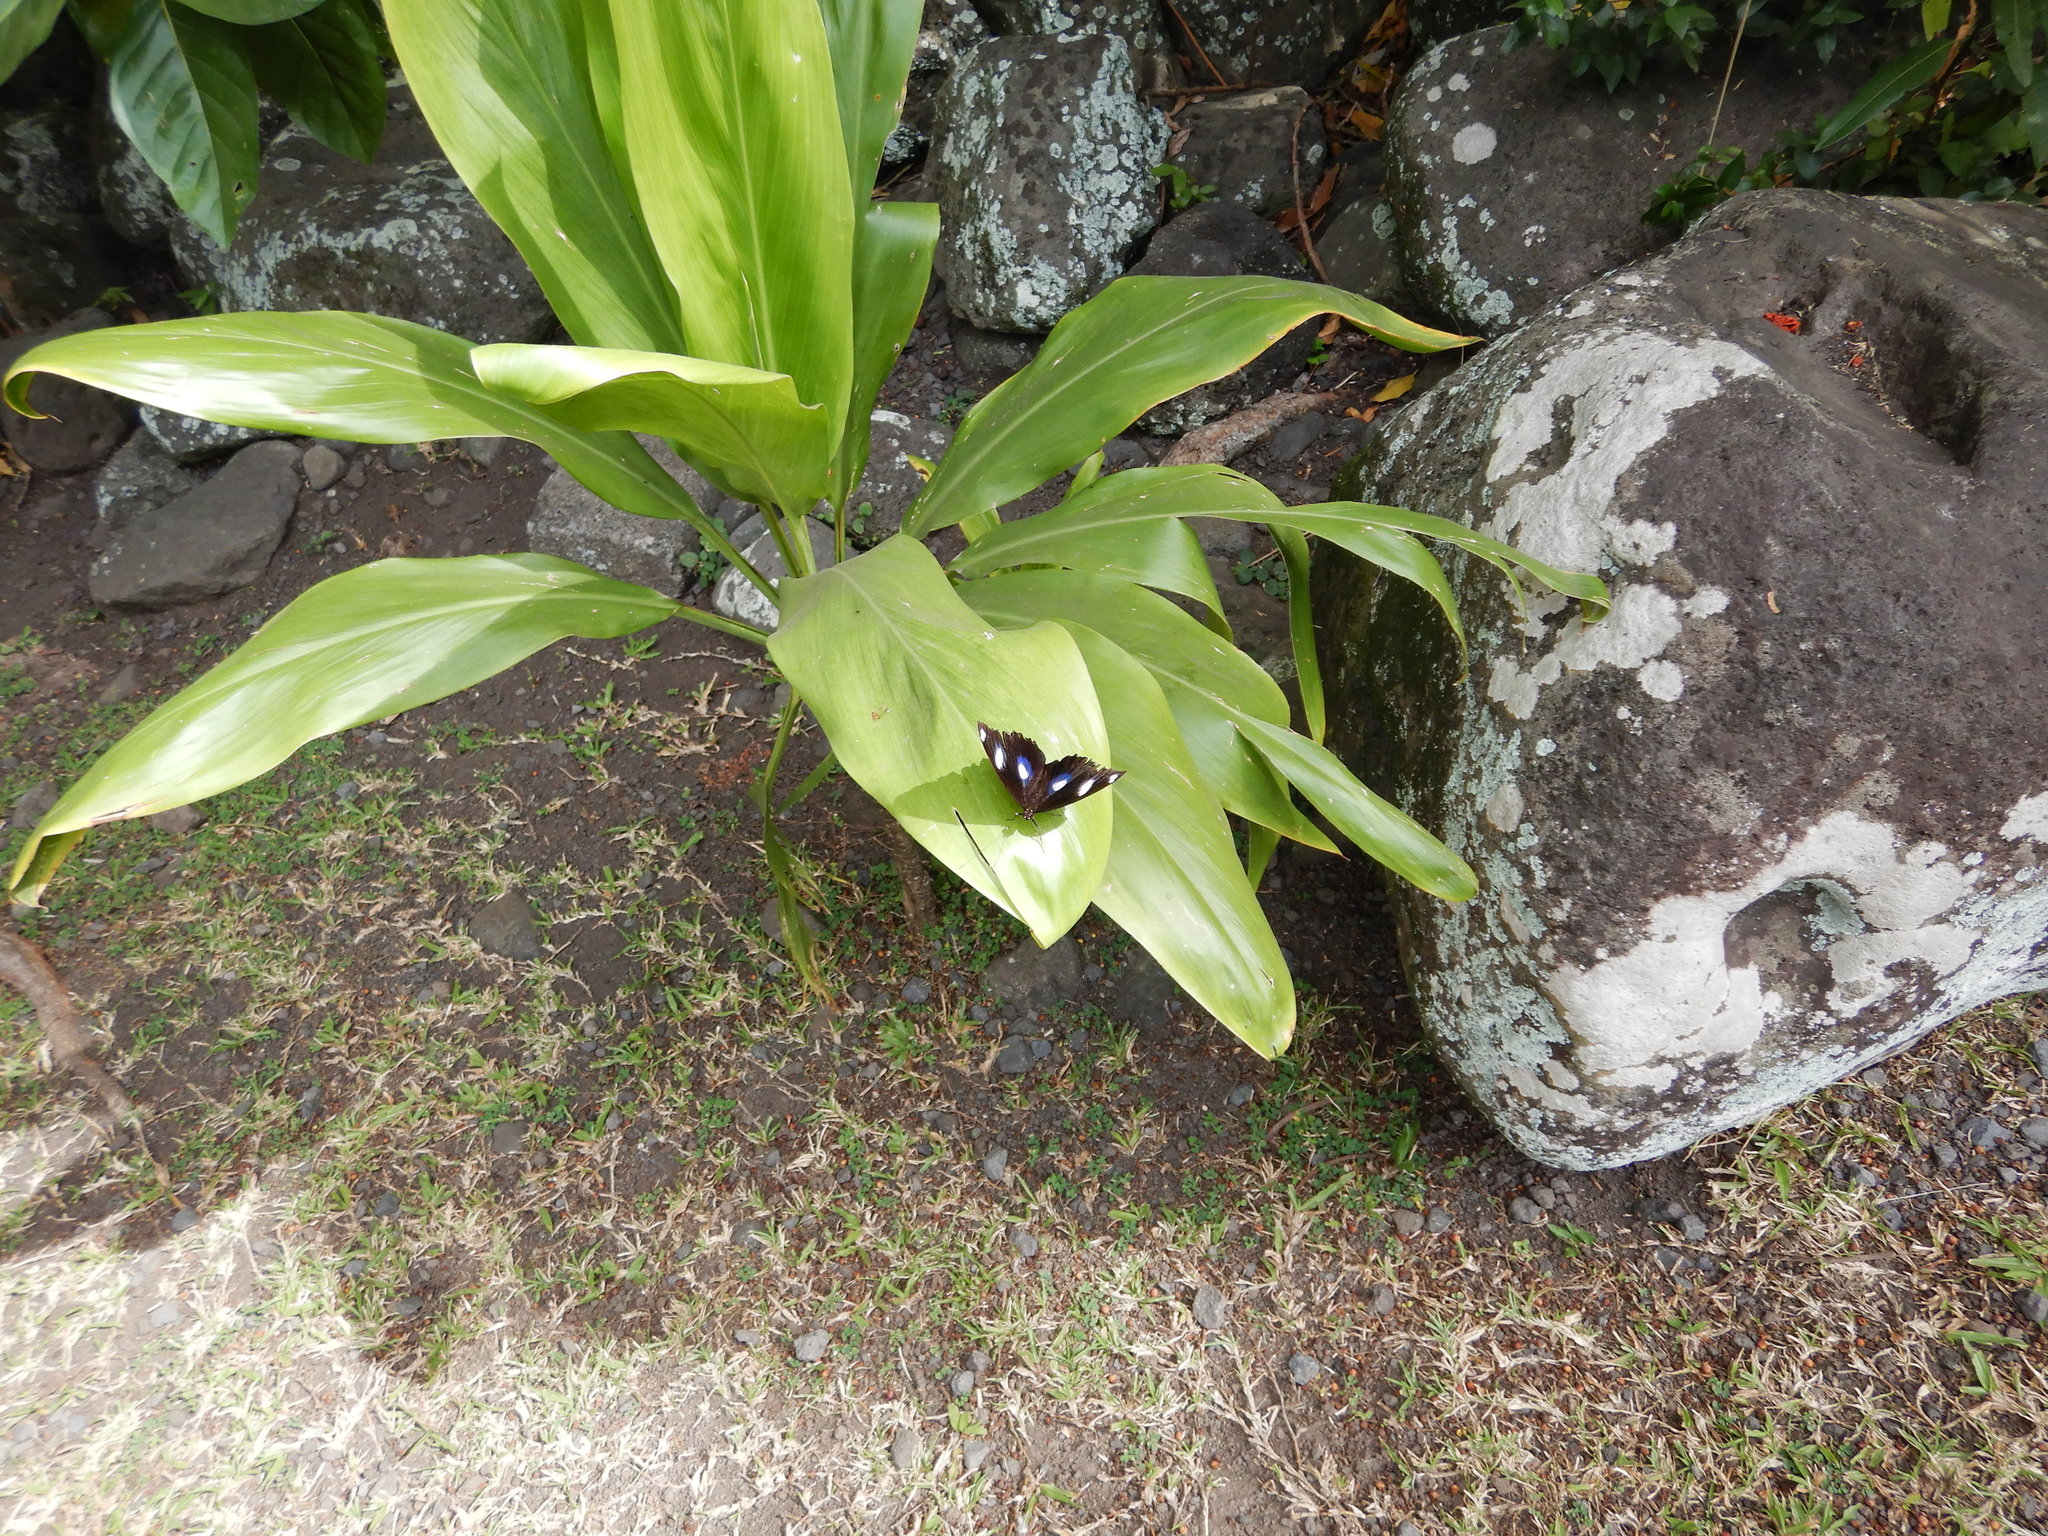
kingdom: Animalia
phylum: Arthropoda
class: Insecta
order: Lepidoptera
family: Nymphalidae
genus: Hypolimnas
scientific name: Hypolimnas bolina
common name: Great eggfly
